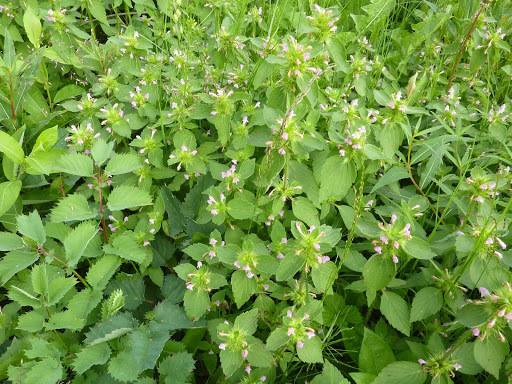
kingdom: Plantae
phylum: Tracheophyta
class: Magnoliopsida
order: Lamiales
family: Lamiaceae
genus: Galeopsis
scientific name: Galeopsis tetrahit
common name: Common hemp-nettle
